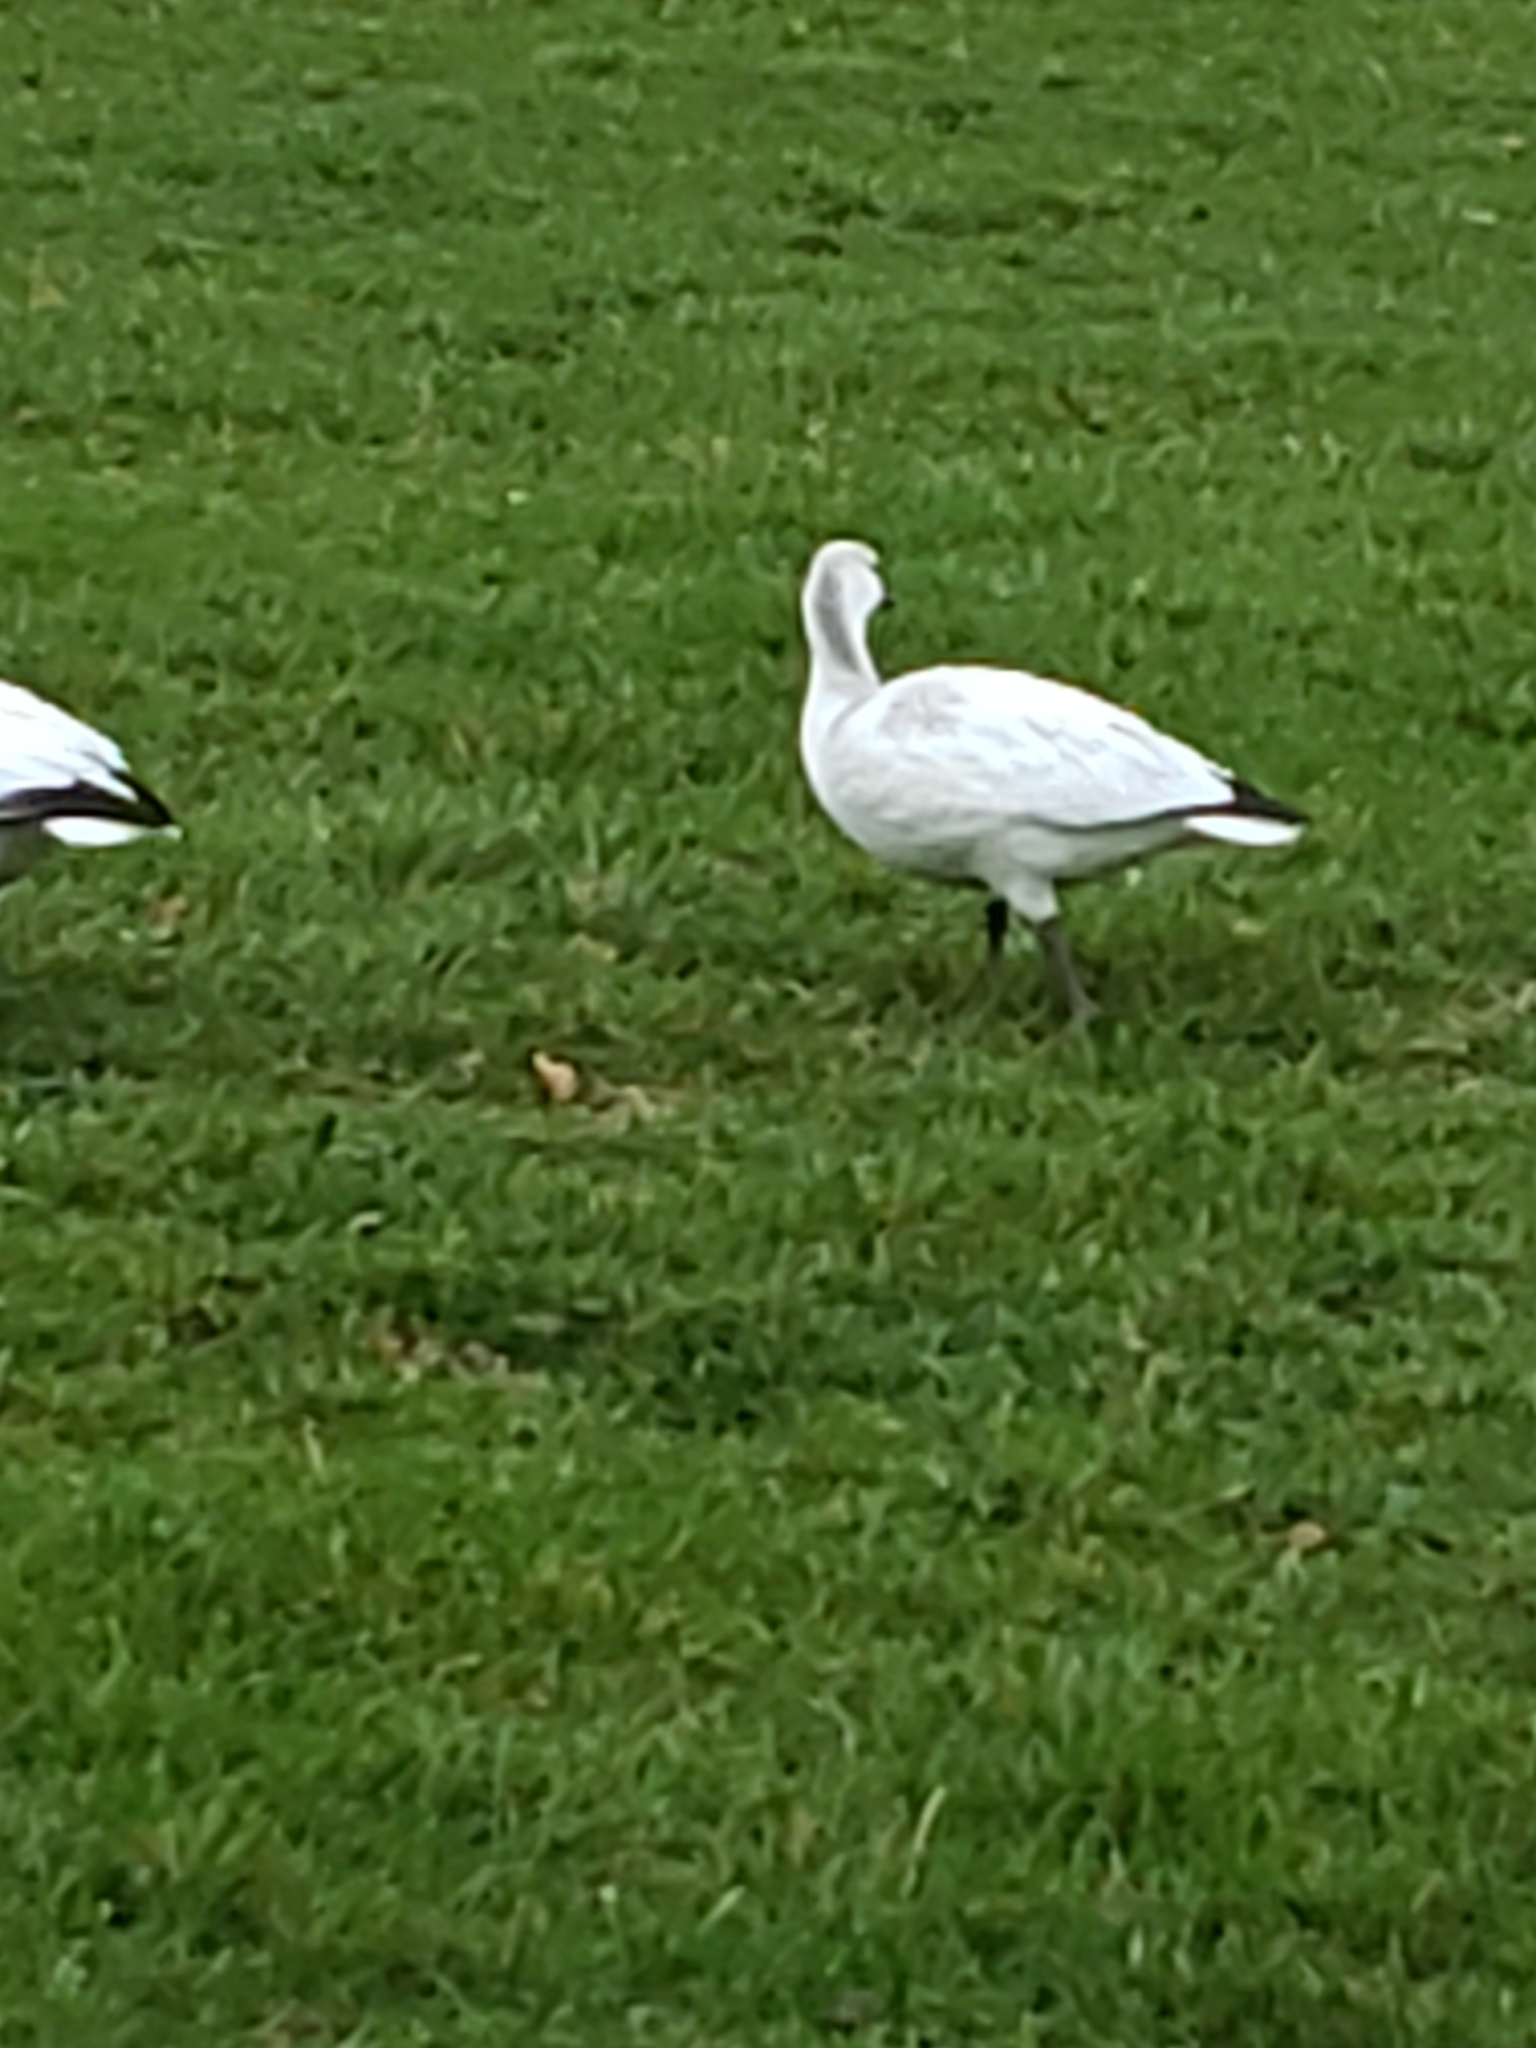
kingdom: Animalia
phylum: Chordata
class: Aves
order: Anseriformes
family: Anatidae
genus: Anser
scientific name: Anser rossii
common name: Ross's goose
